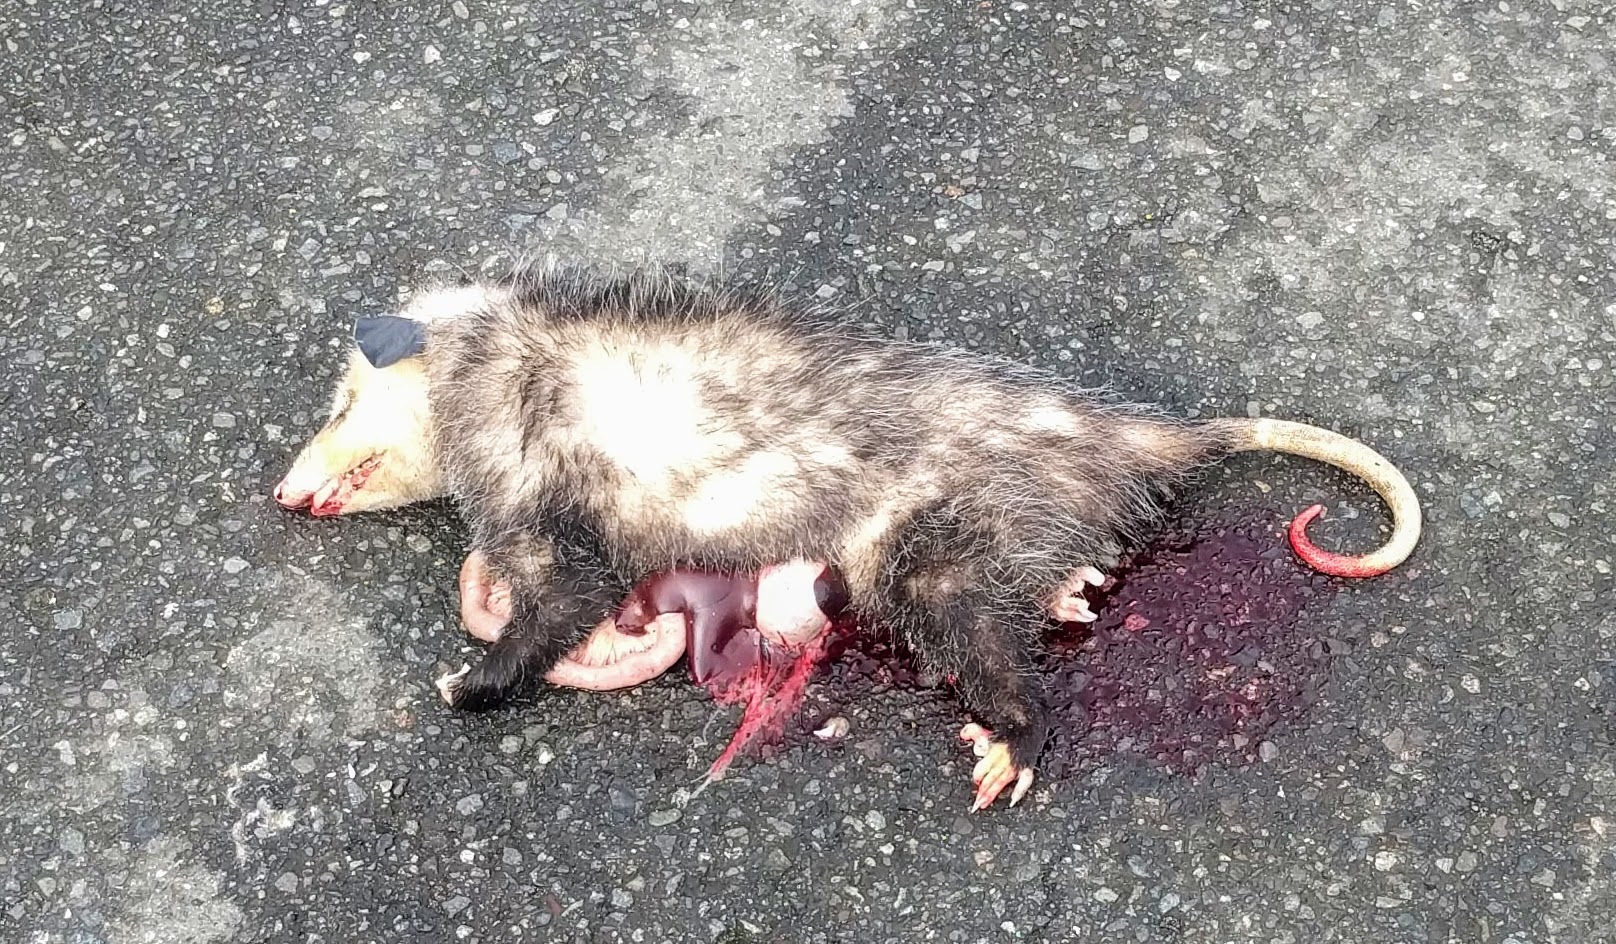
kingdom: Animalia
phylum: Chordata
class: Mammalia
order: Didelphimorphia
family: Didelphidae
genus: Didelphis
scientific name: Didelphis virginiana
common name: Virginia opossum
